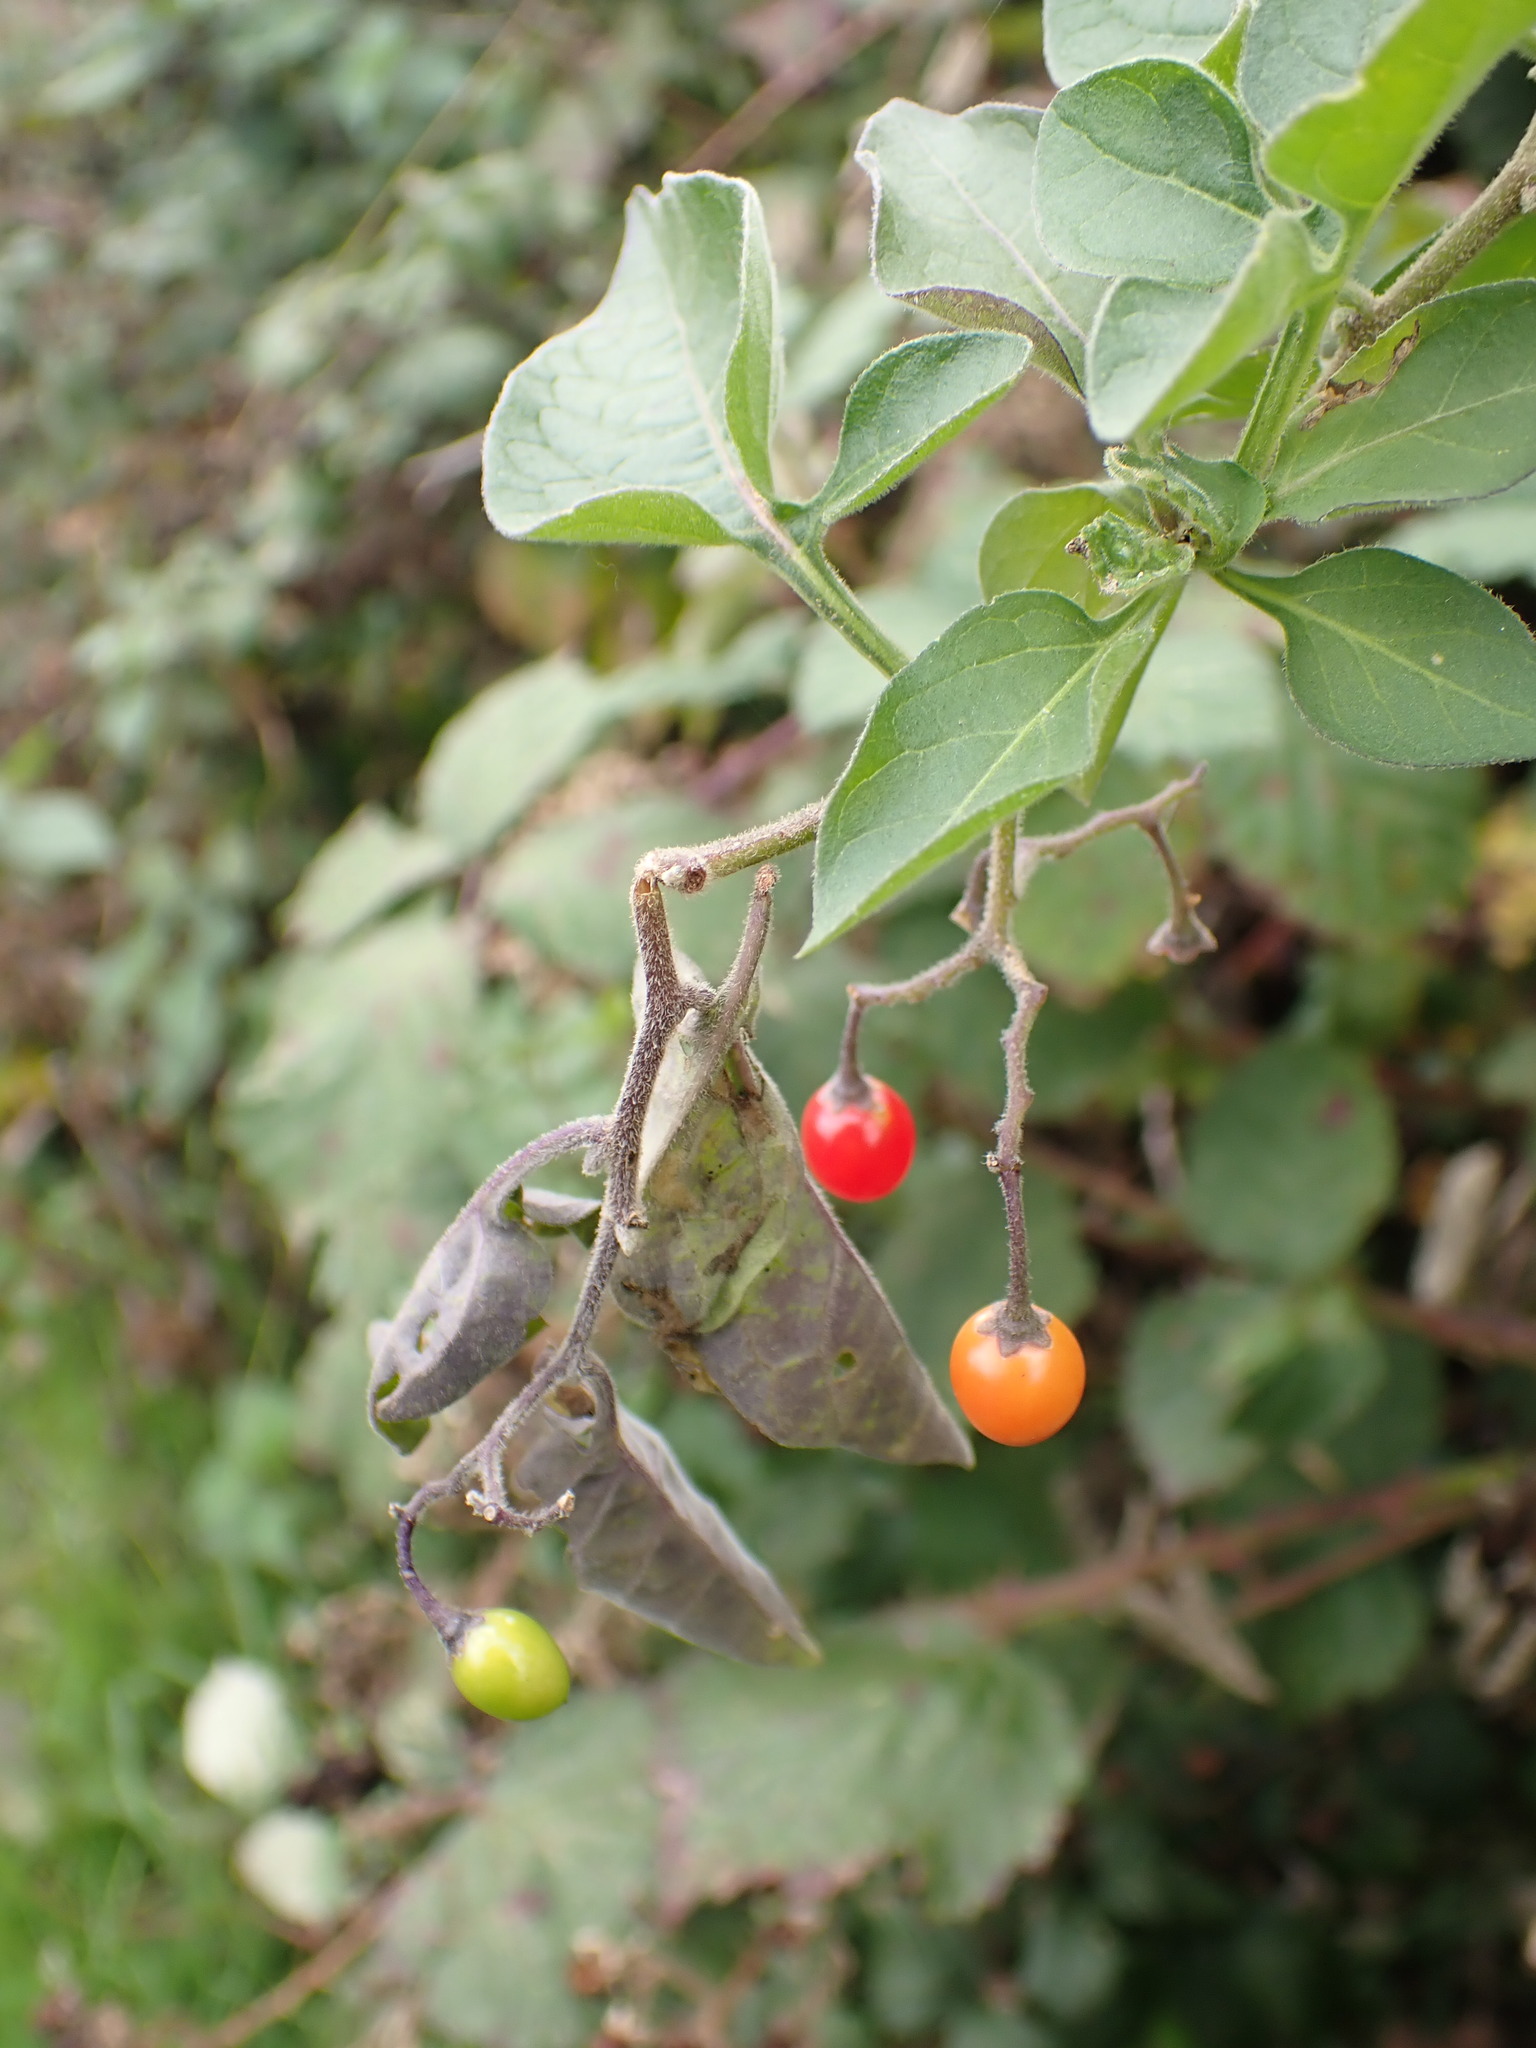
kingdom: Plantae
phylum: Tracheophyta
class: Magnoliopsida
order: Solanales
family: Solanaceae
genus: Solanum
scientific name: Solanum dulcamara
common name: Climbing nightshade
